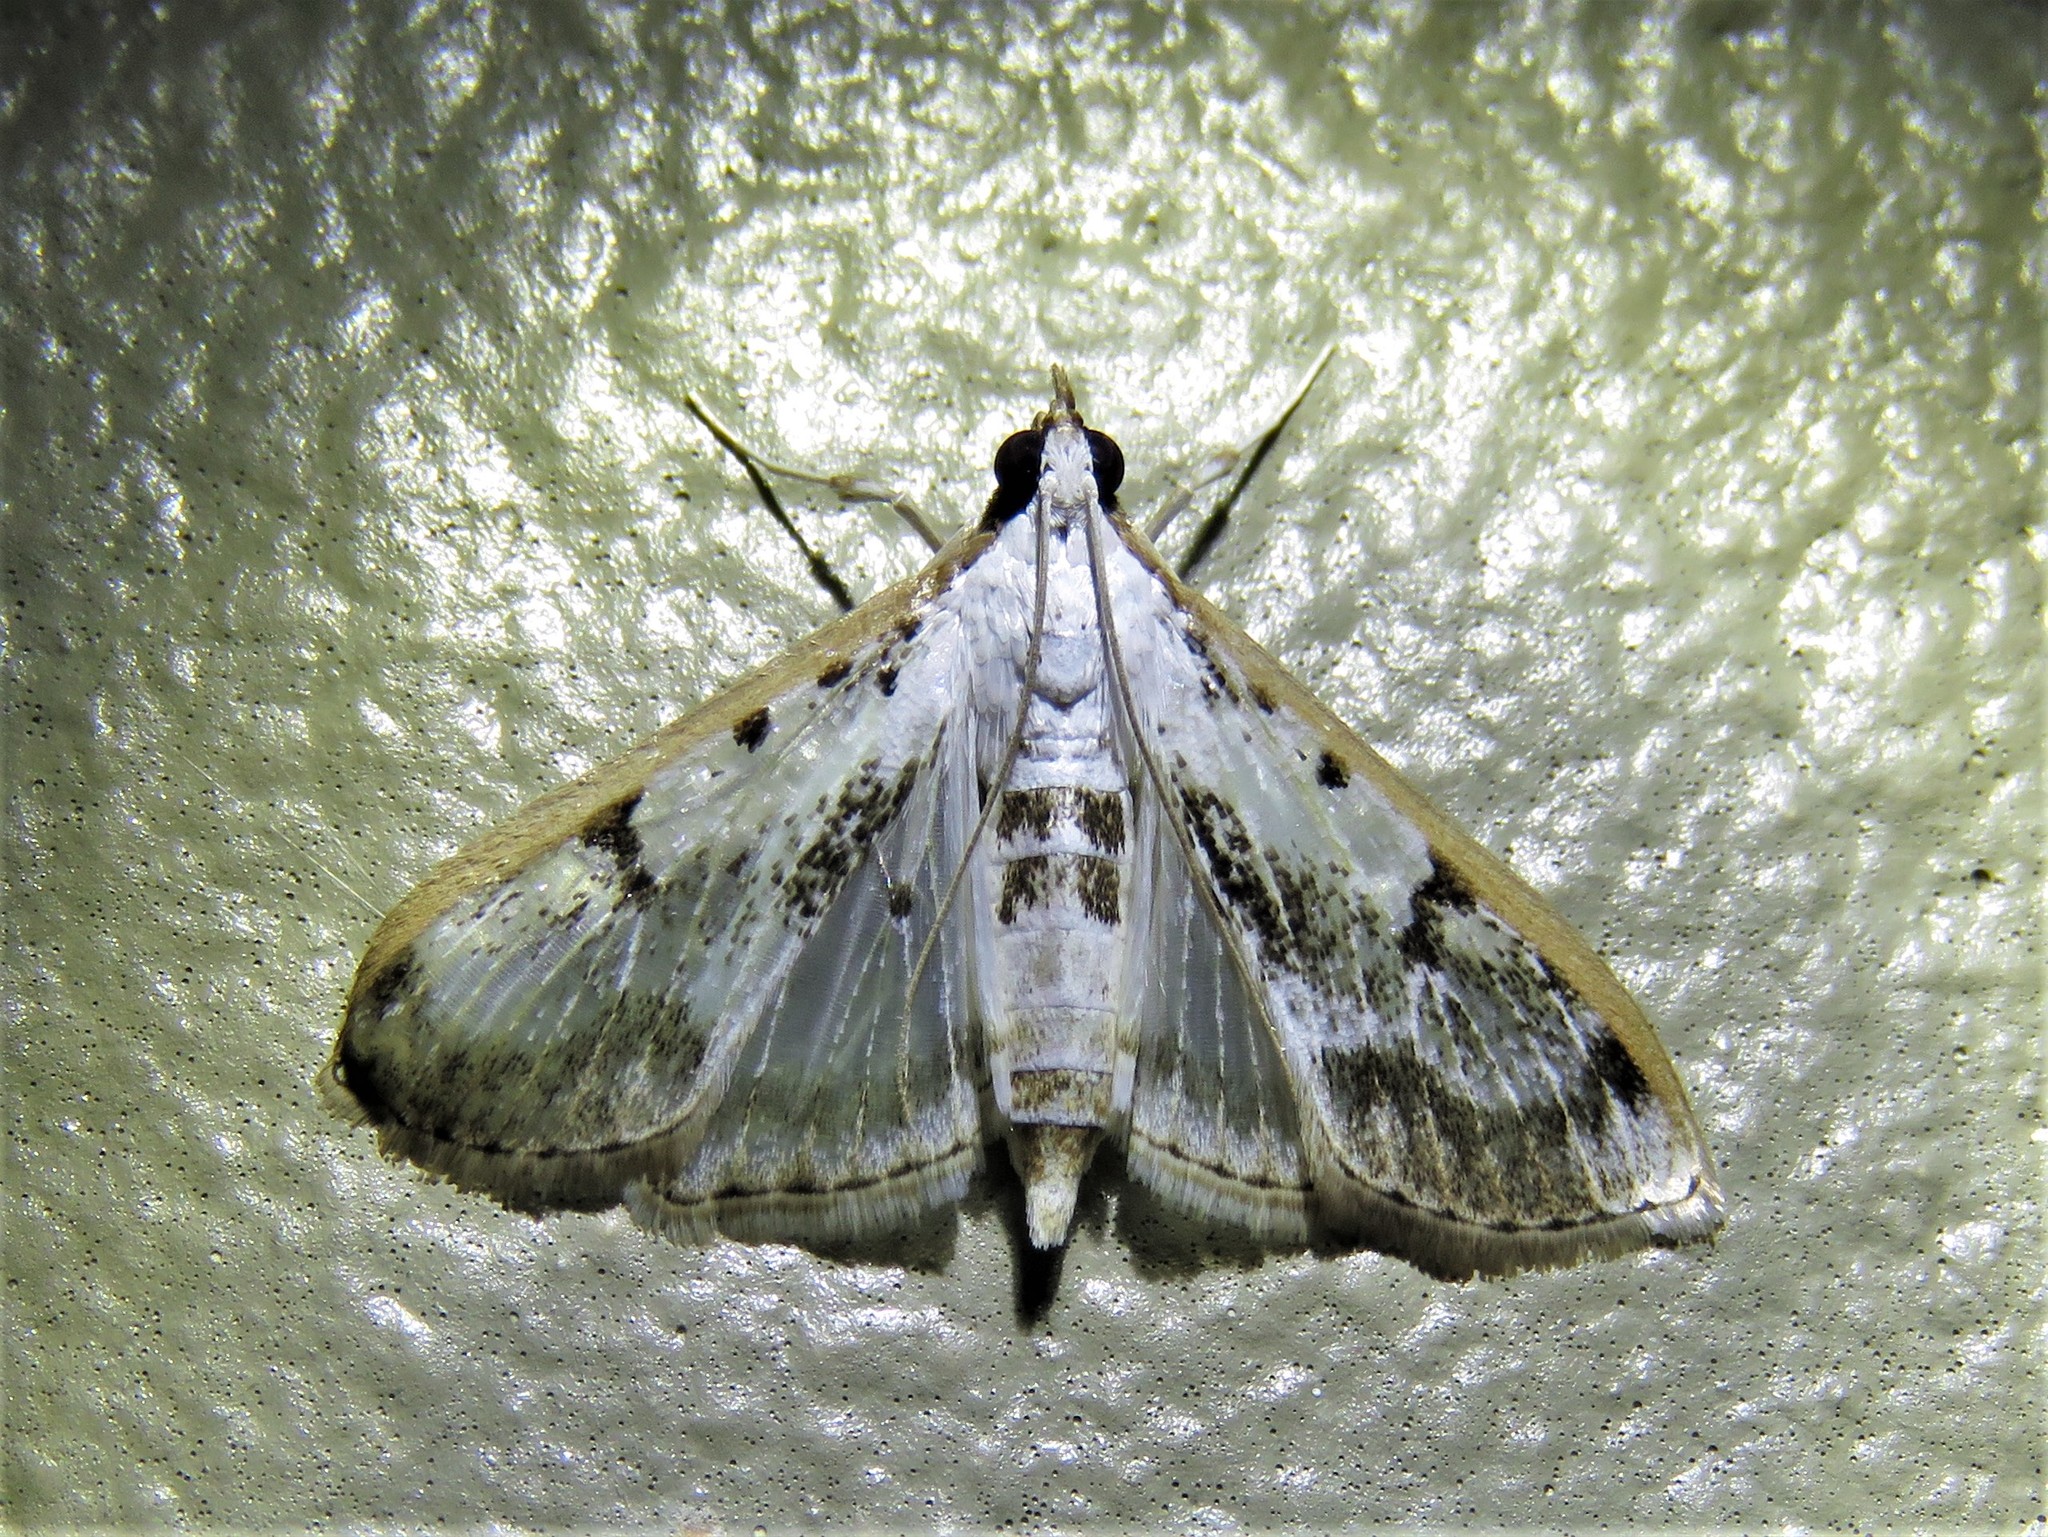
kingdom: Animalia
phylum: Arthropoda
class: Insecta
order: Lepidoptera
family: Crambidae
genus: Palpita
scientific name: Palpita gracilalis
